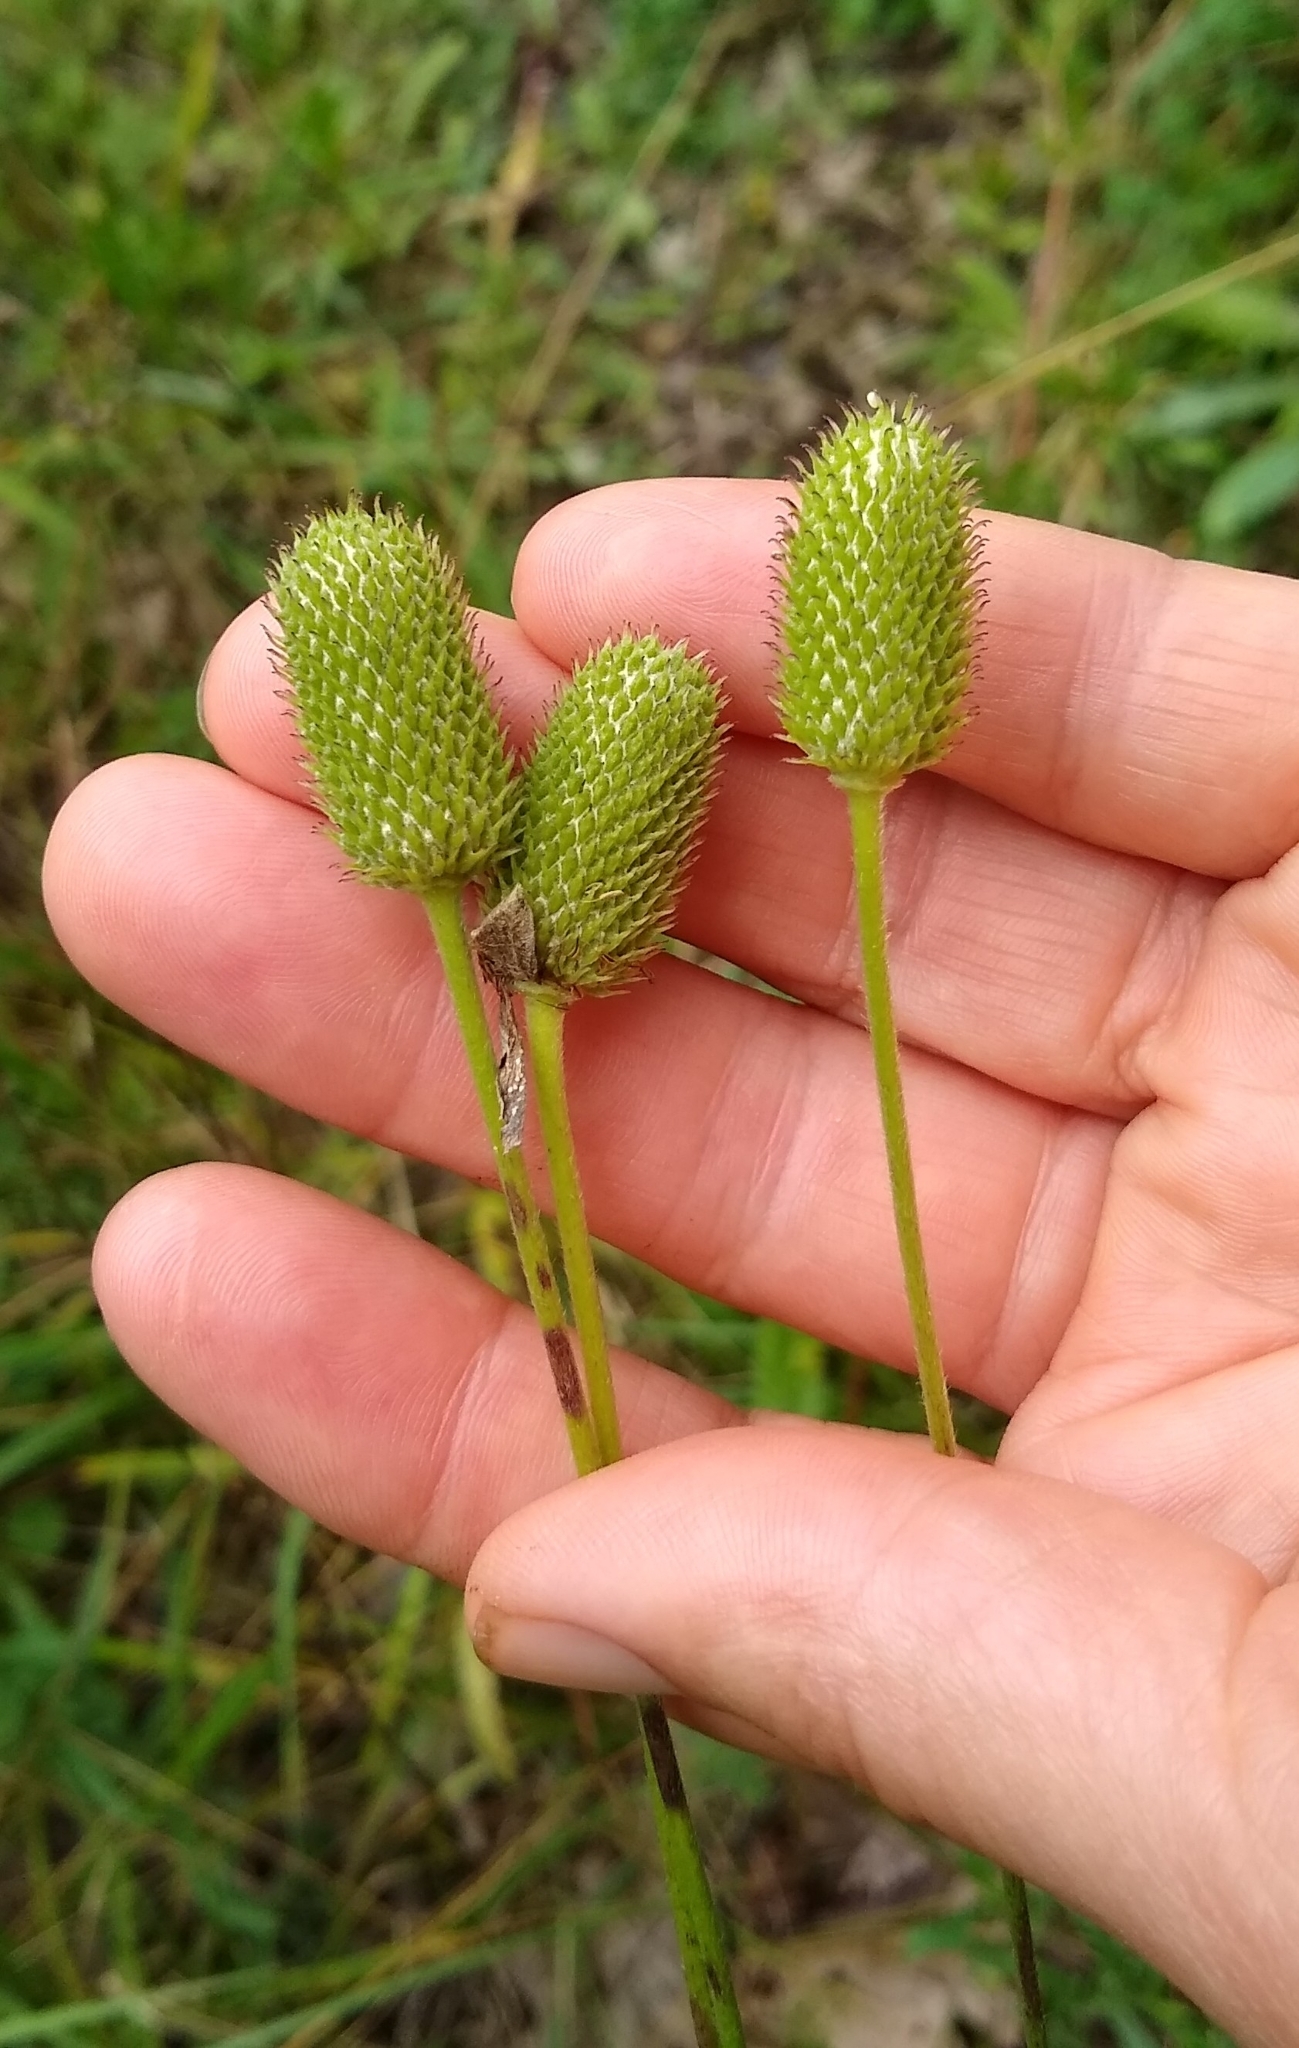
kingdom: Plantae
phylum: Tracheophyta
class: Magnoliopsida
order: Ranunculales
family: Ranunculaceae
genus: Anemone
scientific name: Anemone virginiana
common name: Tall anemone
